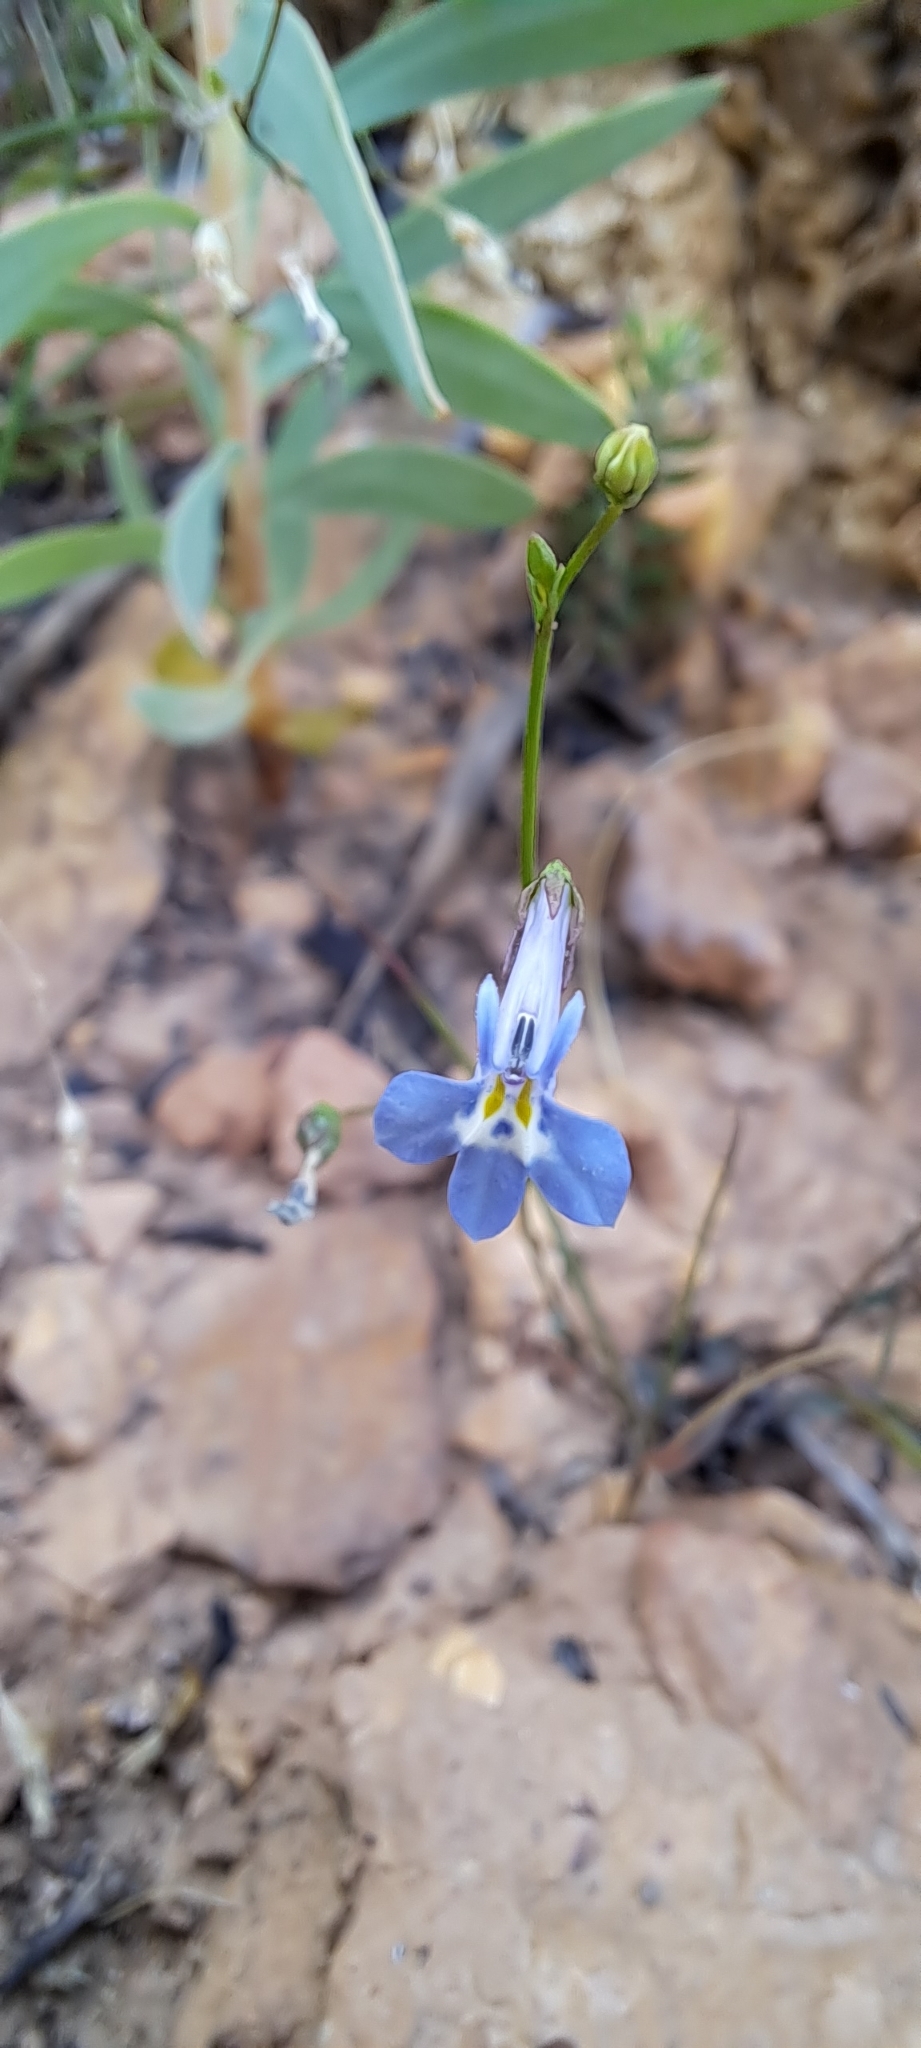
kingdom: Plantae
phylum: Tracheophyta
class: Magnoliopsida
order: Asterales
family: Campanulaceae
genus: Lobelia
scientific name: Lobelia erinus
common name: Edging lobelia
